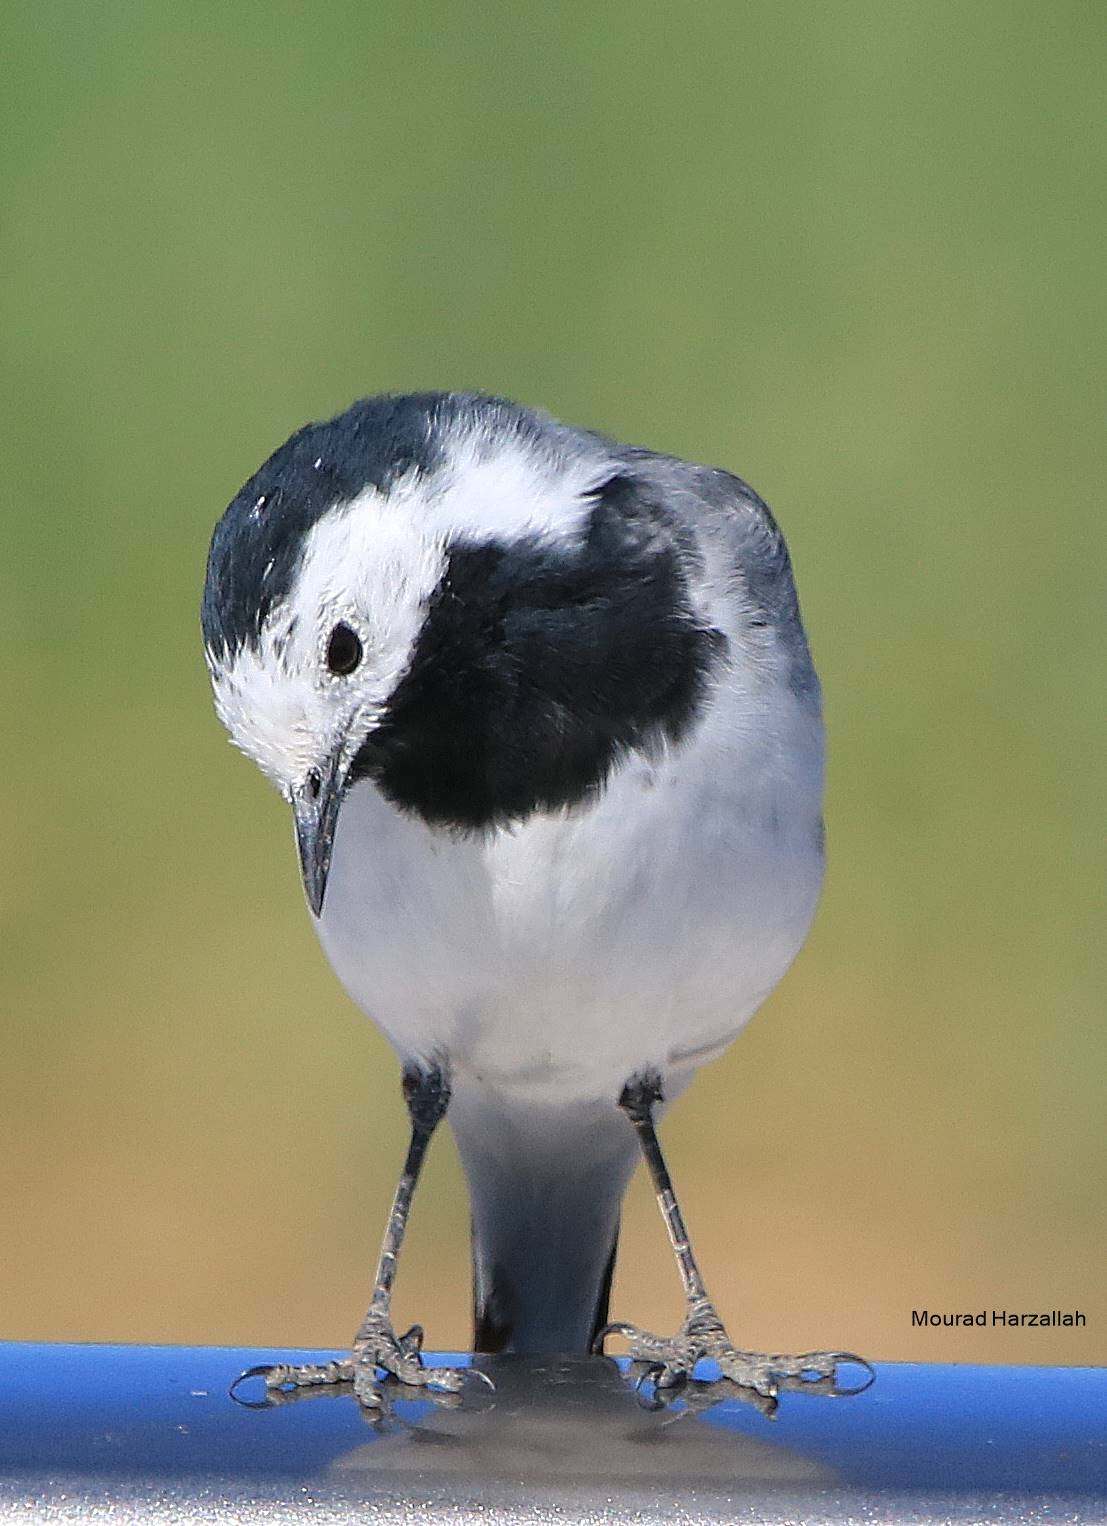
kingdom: Animalia
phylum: Chordata
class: Aves
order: Passeriformes
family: Motacillidae
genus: Motacilla
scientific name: Motacilla alba
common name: White wagtail
